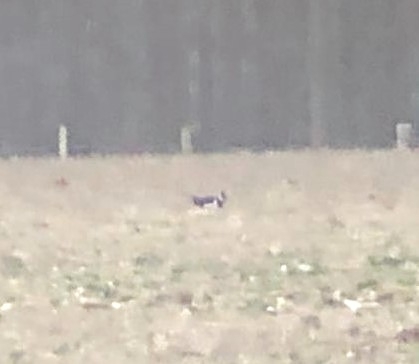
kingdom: Animalia
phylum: Chordata
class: Aves
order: Charadriiformes
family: Charadriidae
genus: Vanellus
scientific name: Vanellus vanellus
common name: Northern lapwing
